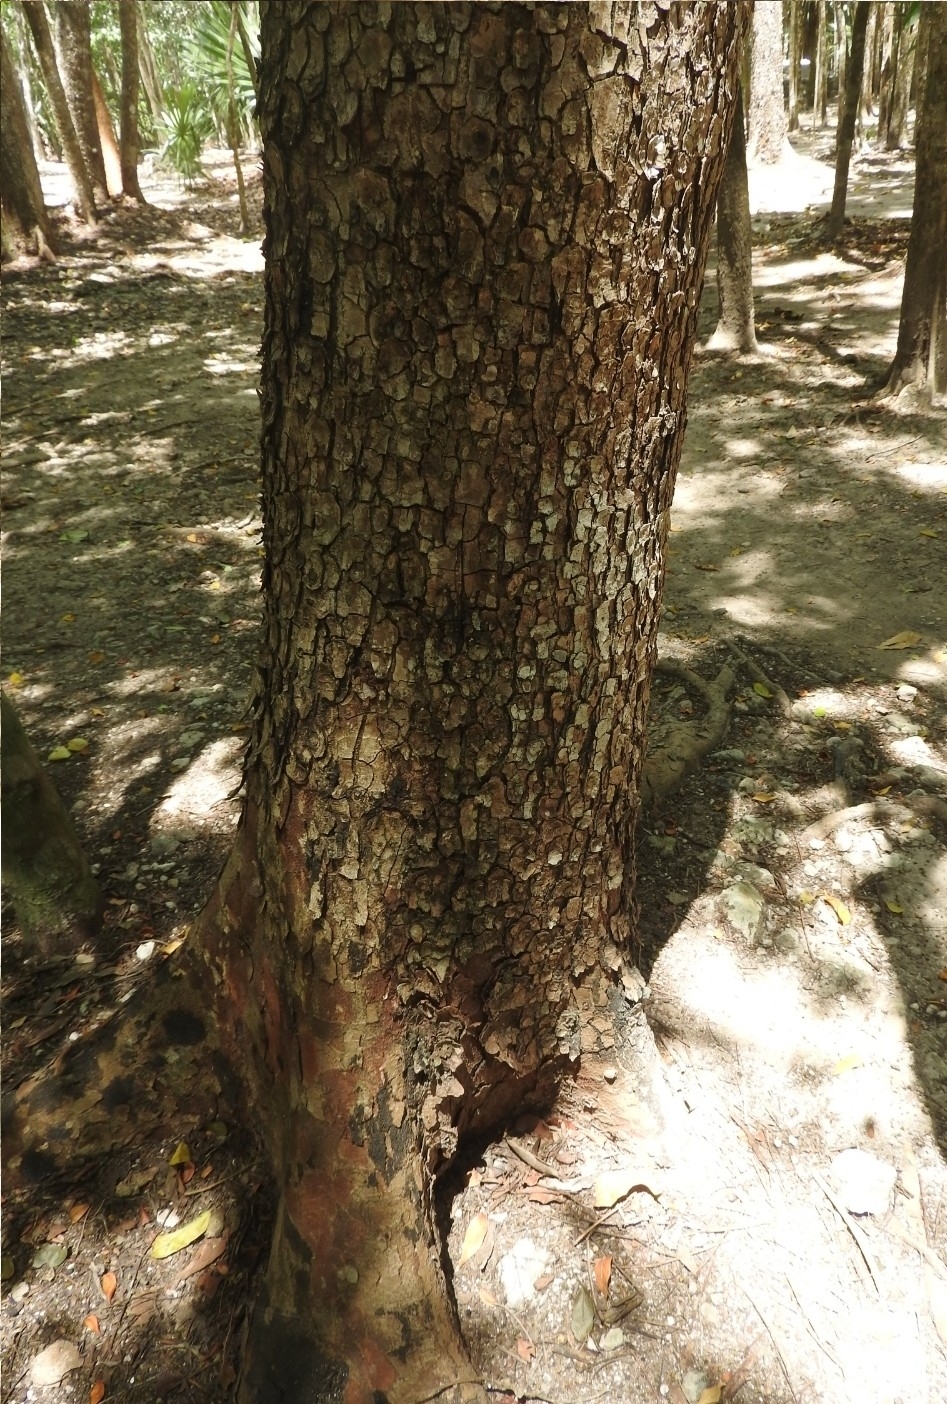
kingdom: Plantae
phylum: Tracheophyta
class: Magnoliopsida
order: Sapindales
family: Anacardiaceae
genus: Metopium
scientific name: Metopium brownei
